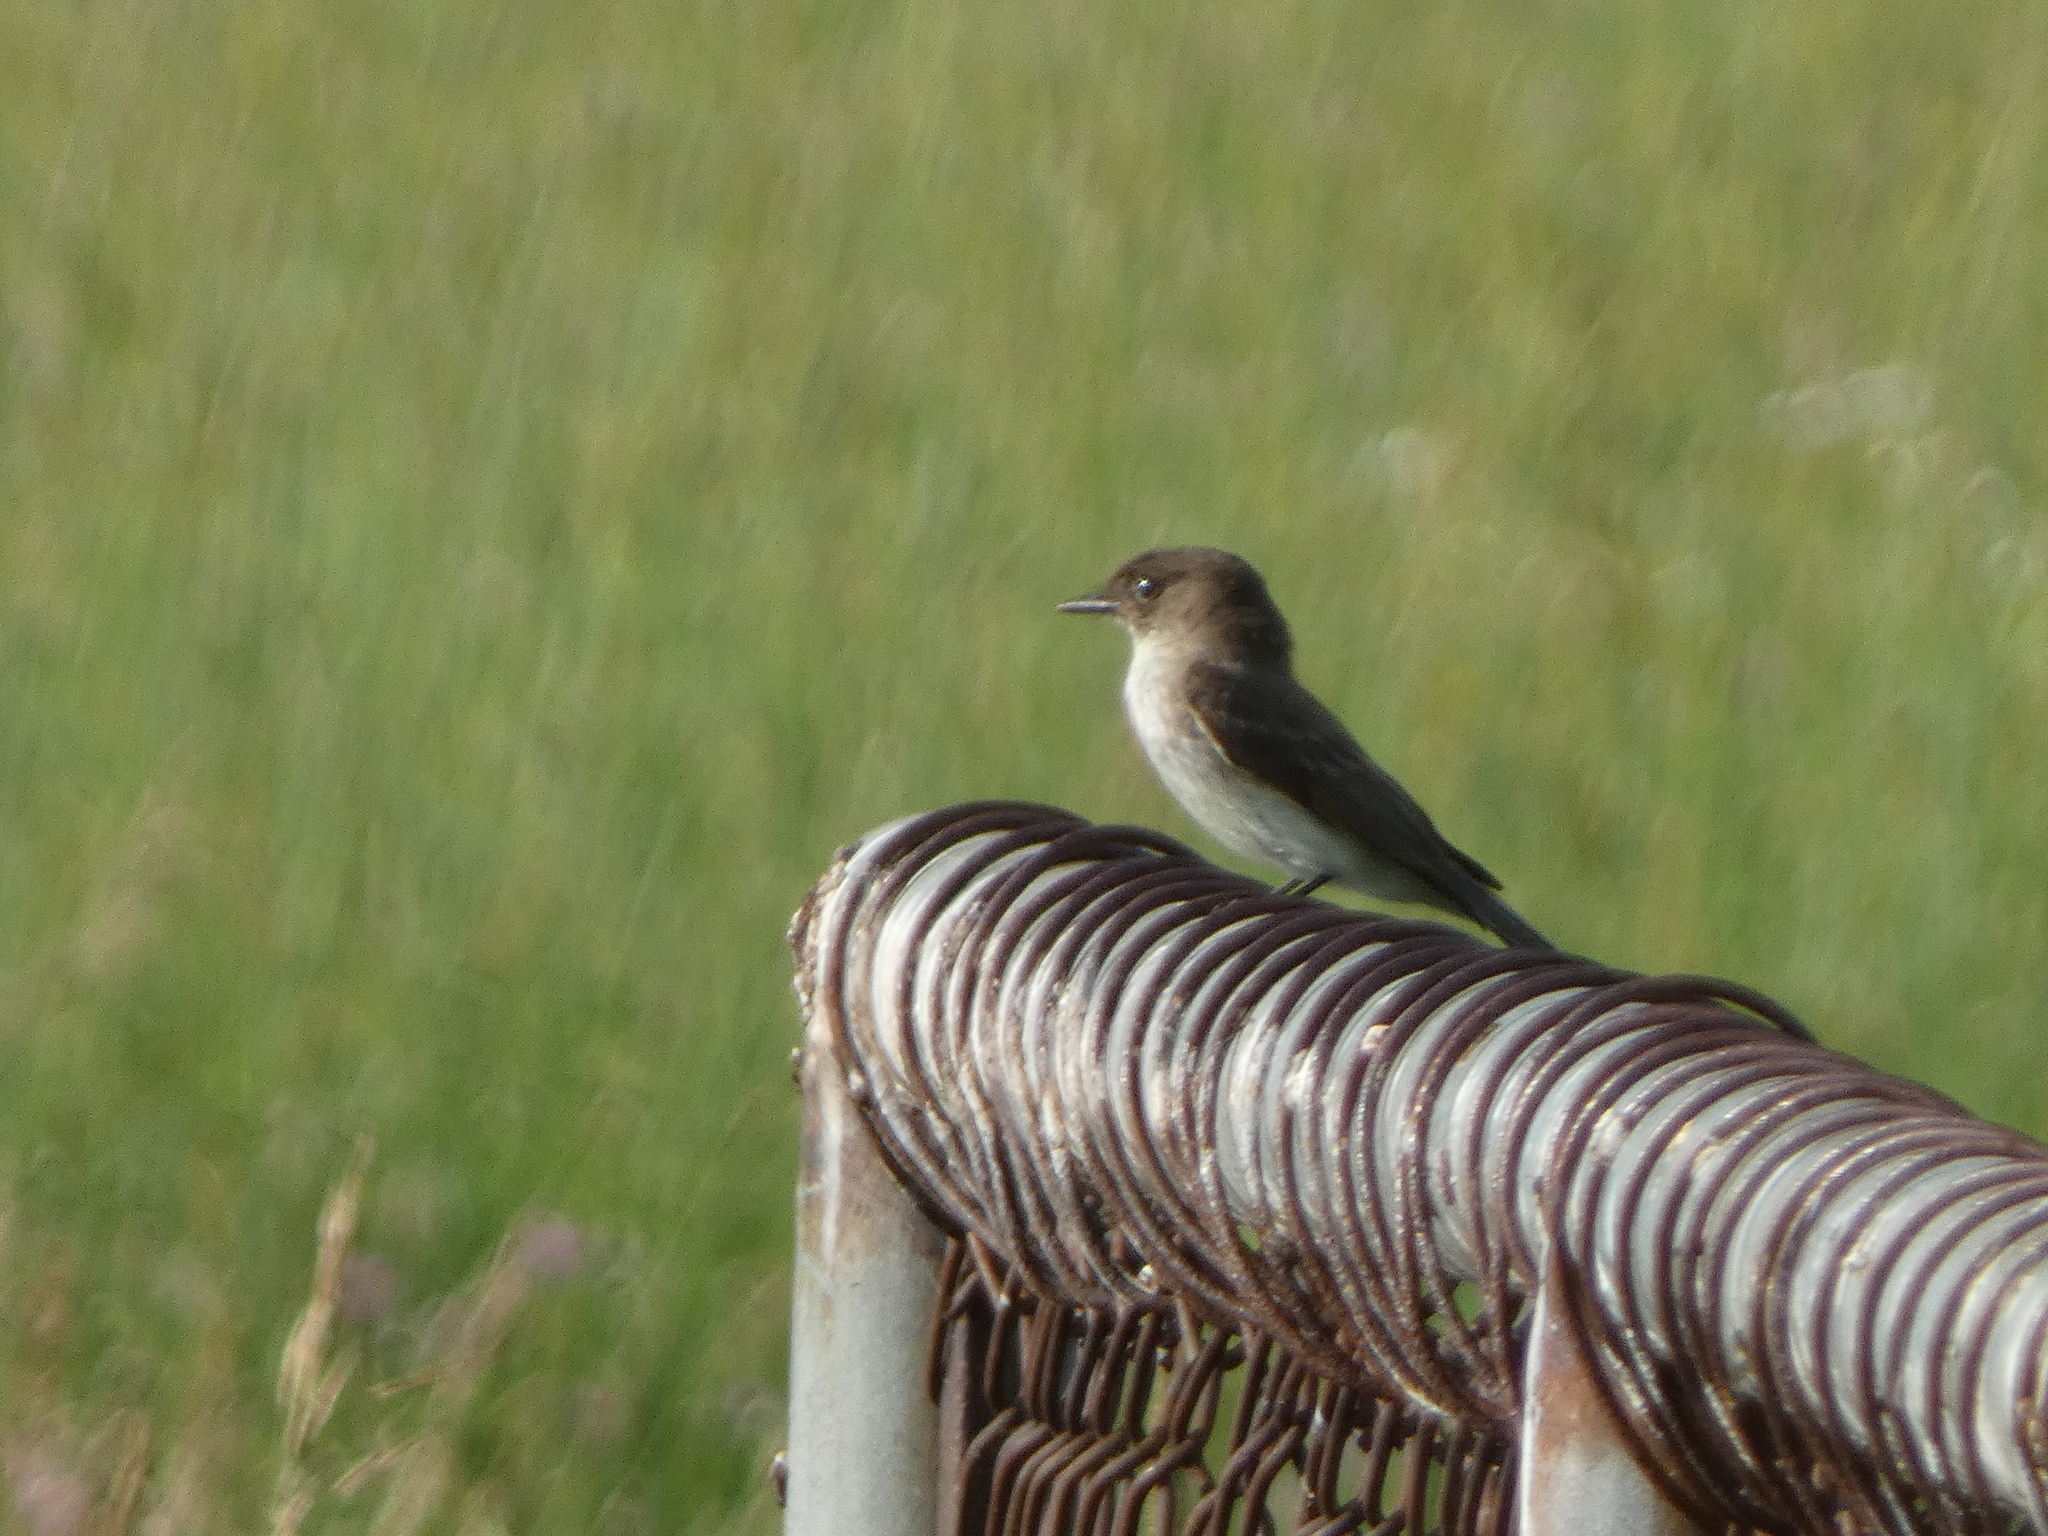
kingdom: Animalia
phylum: Chordata
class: Aves
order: Passeriformes
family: Tyrannidae
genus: Sayornis
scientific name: Sayornis phoebe
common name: Eastern phoebe
